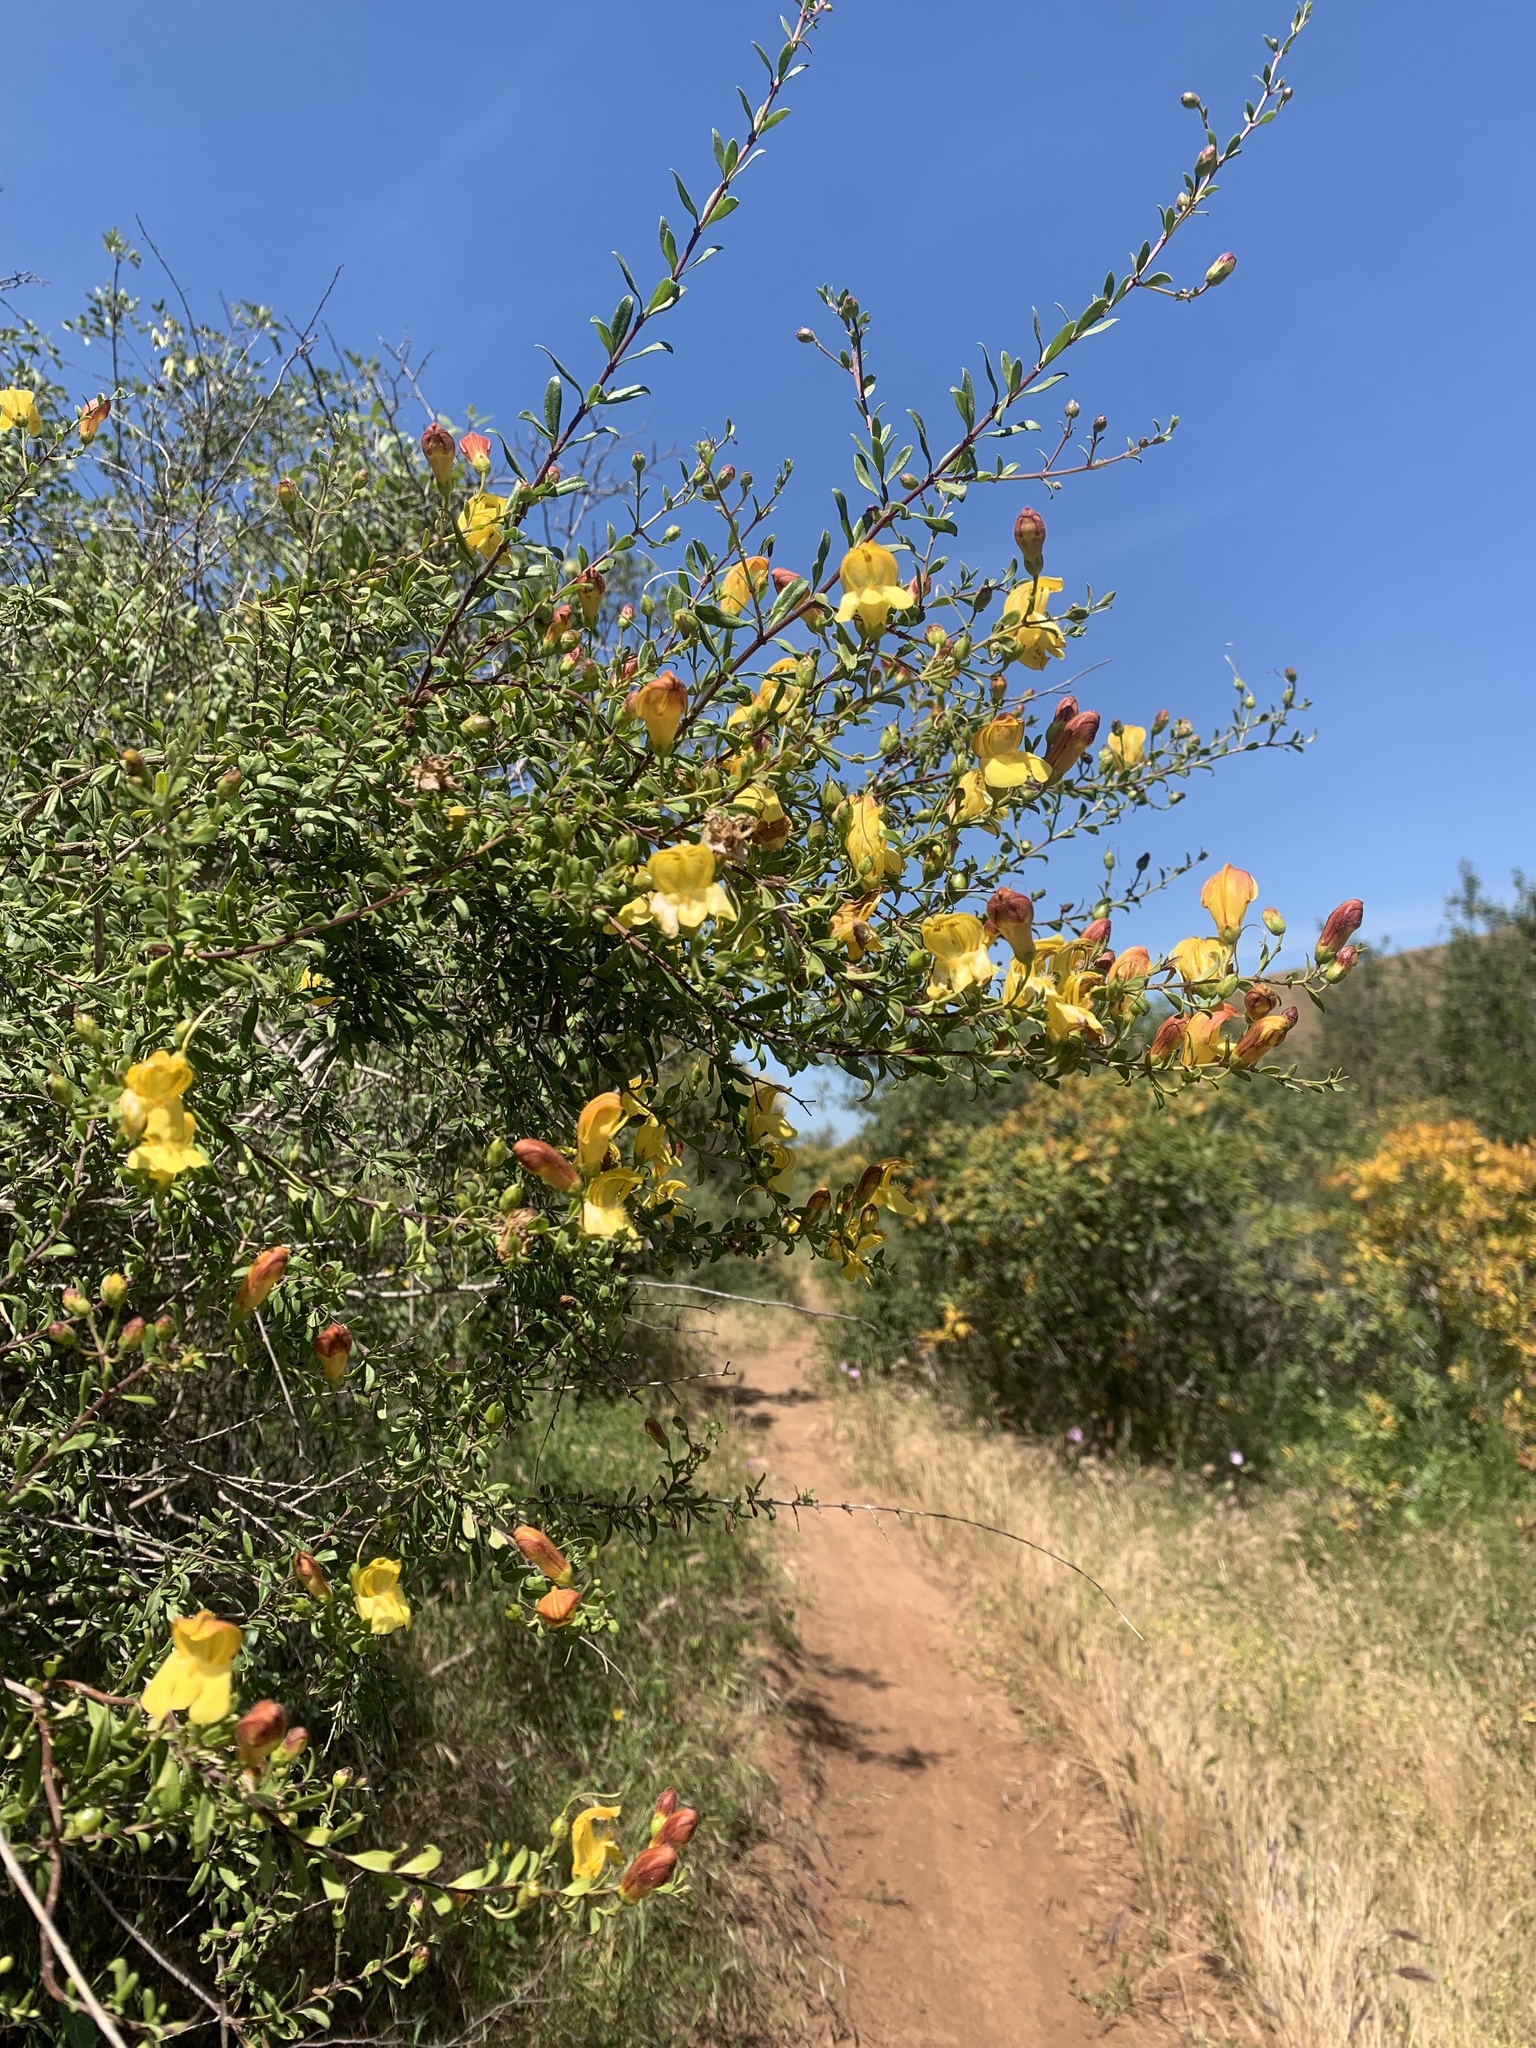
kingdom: Plantae
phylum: Tracheophyta
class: Magnoliopsida
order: Lamiales
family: Plantaginaceae
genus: Keckiella
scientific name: Keckiella antirrhinoides
